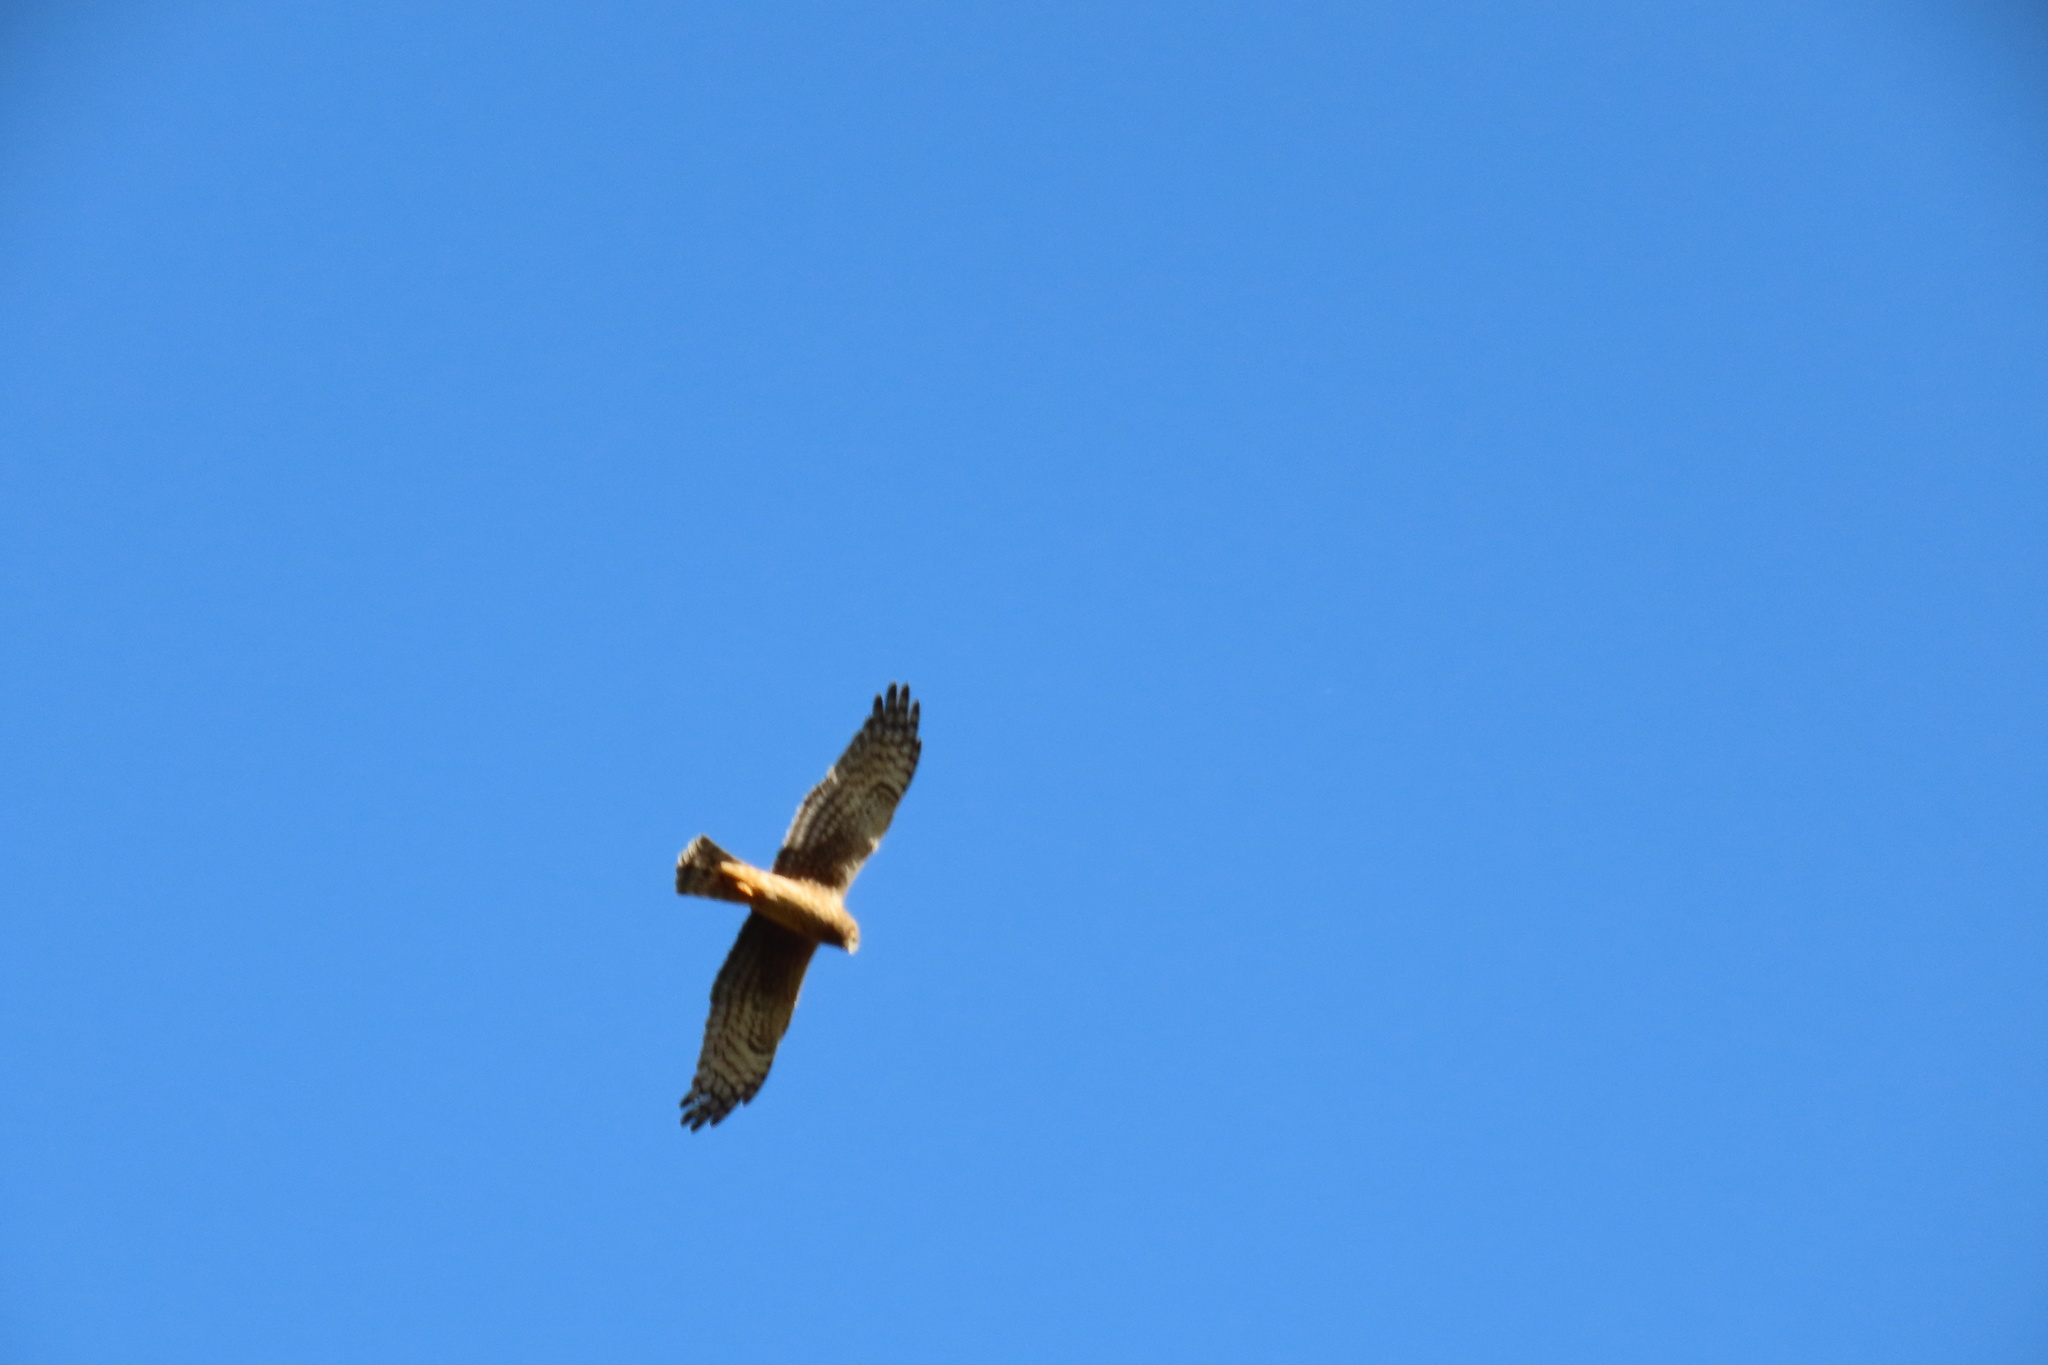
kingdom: Animalia
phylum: Chordata
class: Aves
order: Accipitriformes
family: Accipitridae
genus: Circus
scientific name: Circus cyaneus
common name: Hen harrier
